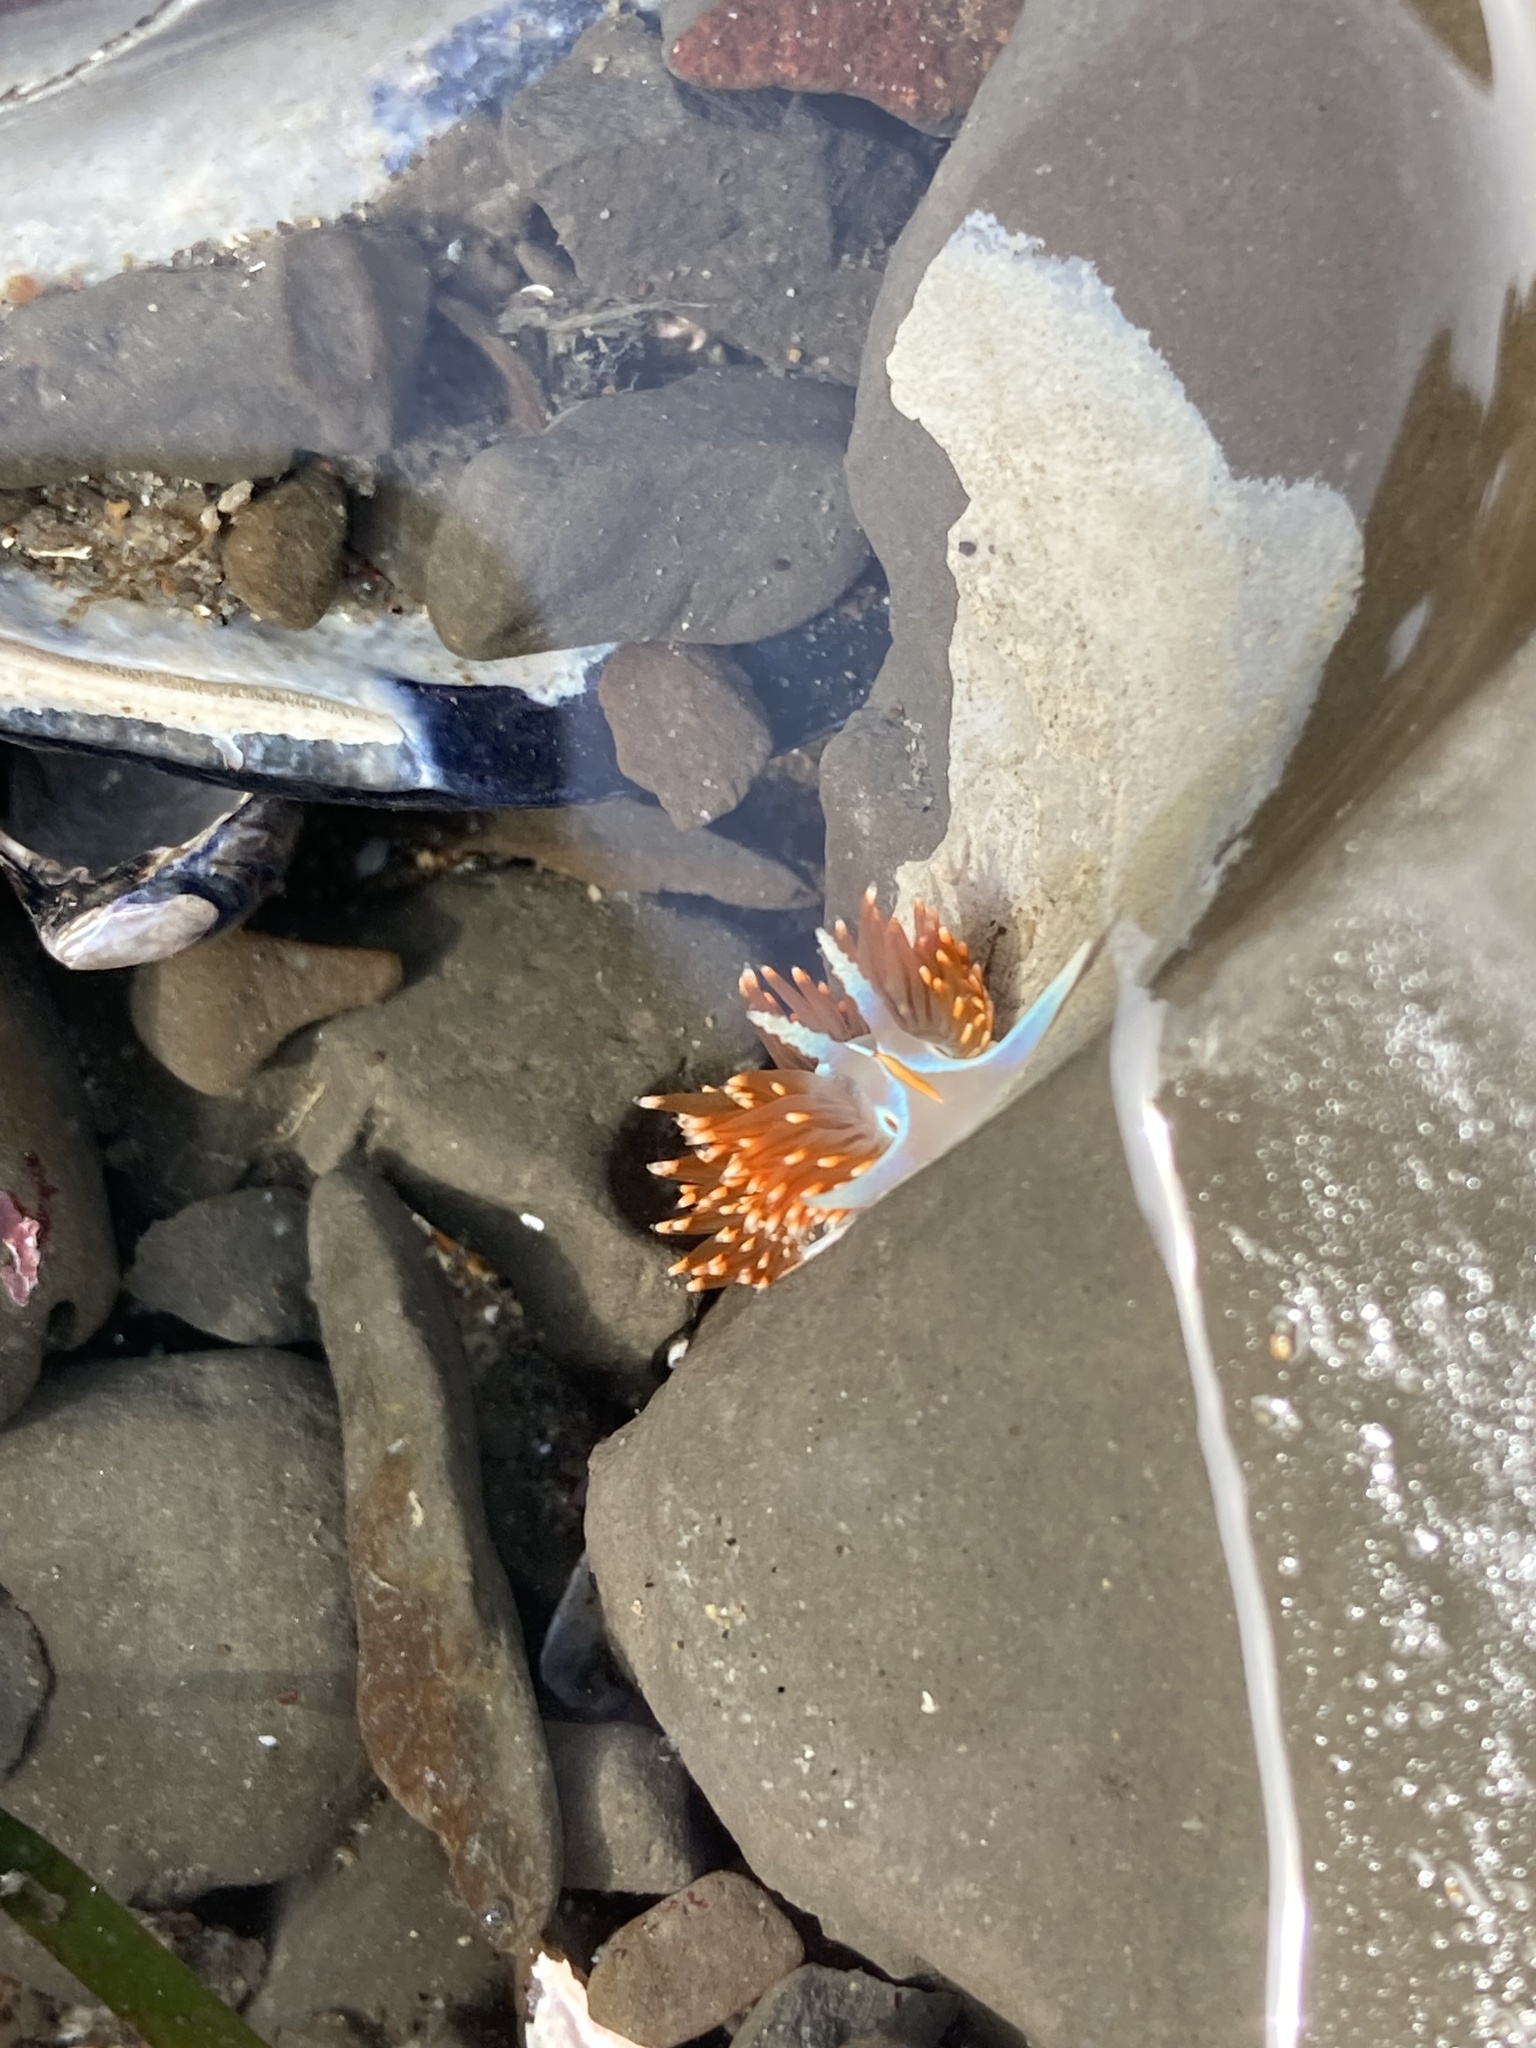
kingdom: Animalia
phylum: Mollusca
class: Gastropoda
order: Nudibranchia
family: Myrrhinidae
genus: Hermissenda
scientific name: Hermissenda opalescens
